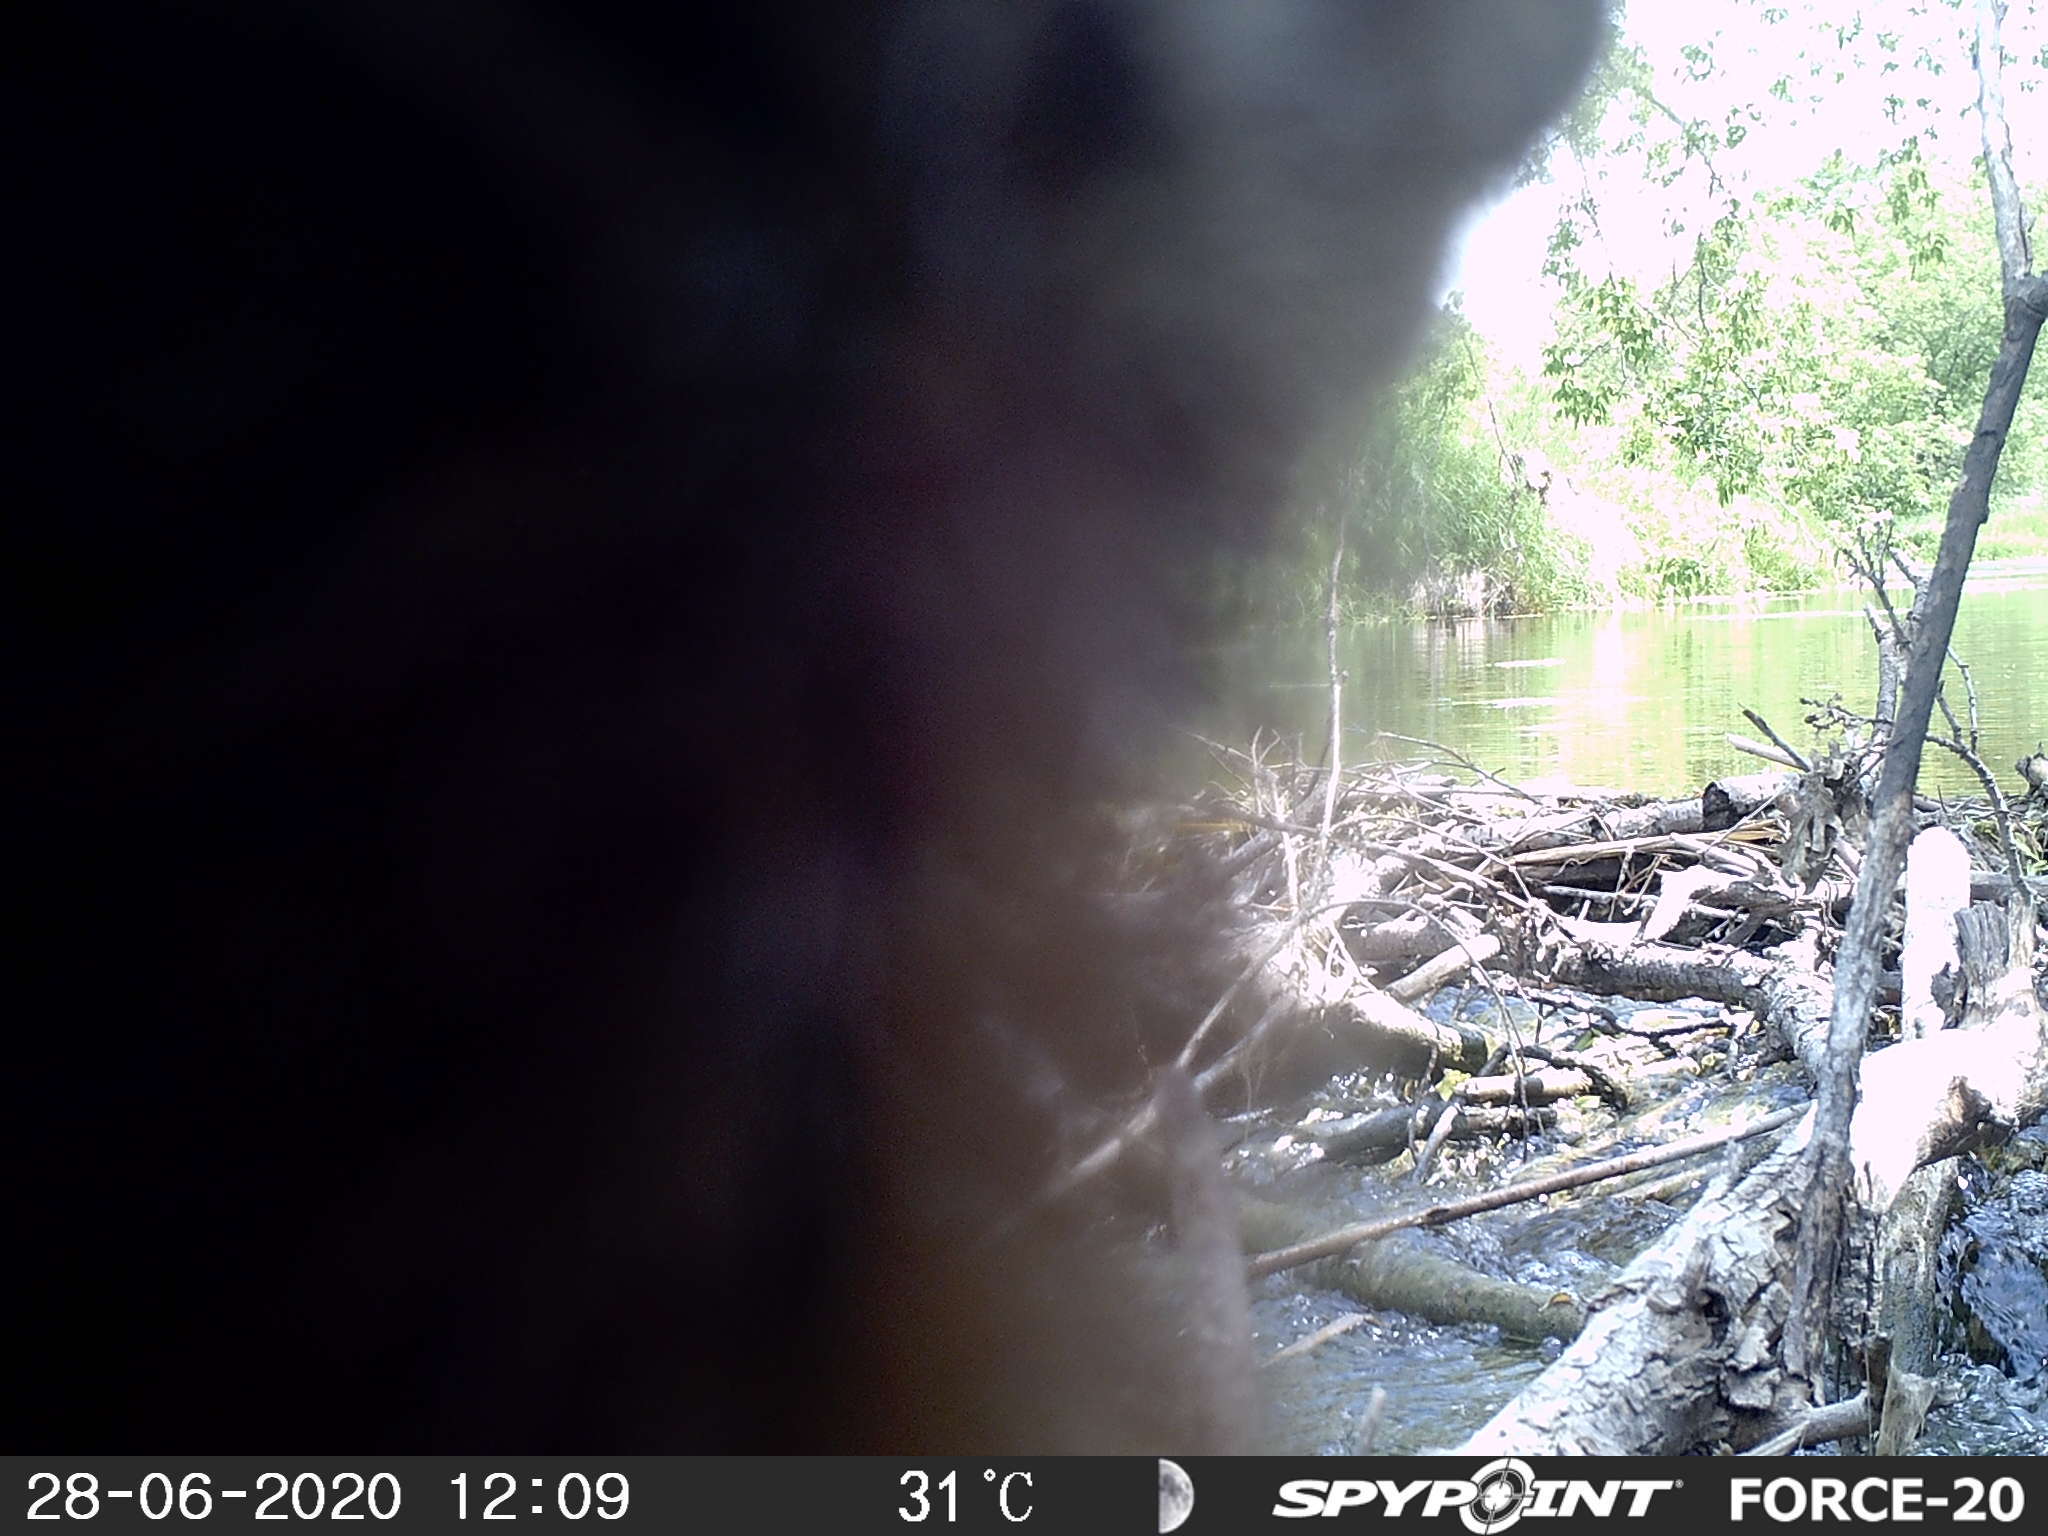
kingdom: Animalia
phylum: Chordata
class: Mammalia
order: Rodentia
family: Sciuridae
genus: Marmota
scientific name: Marmota monax
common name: Groundhog
